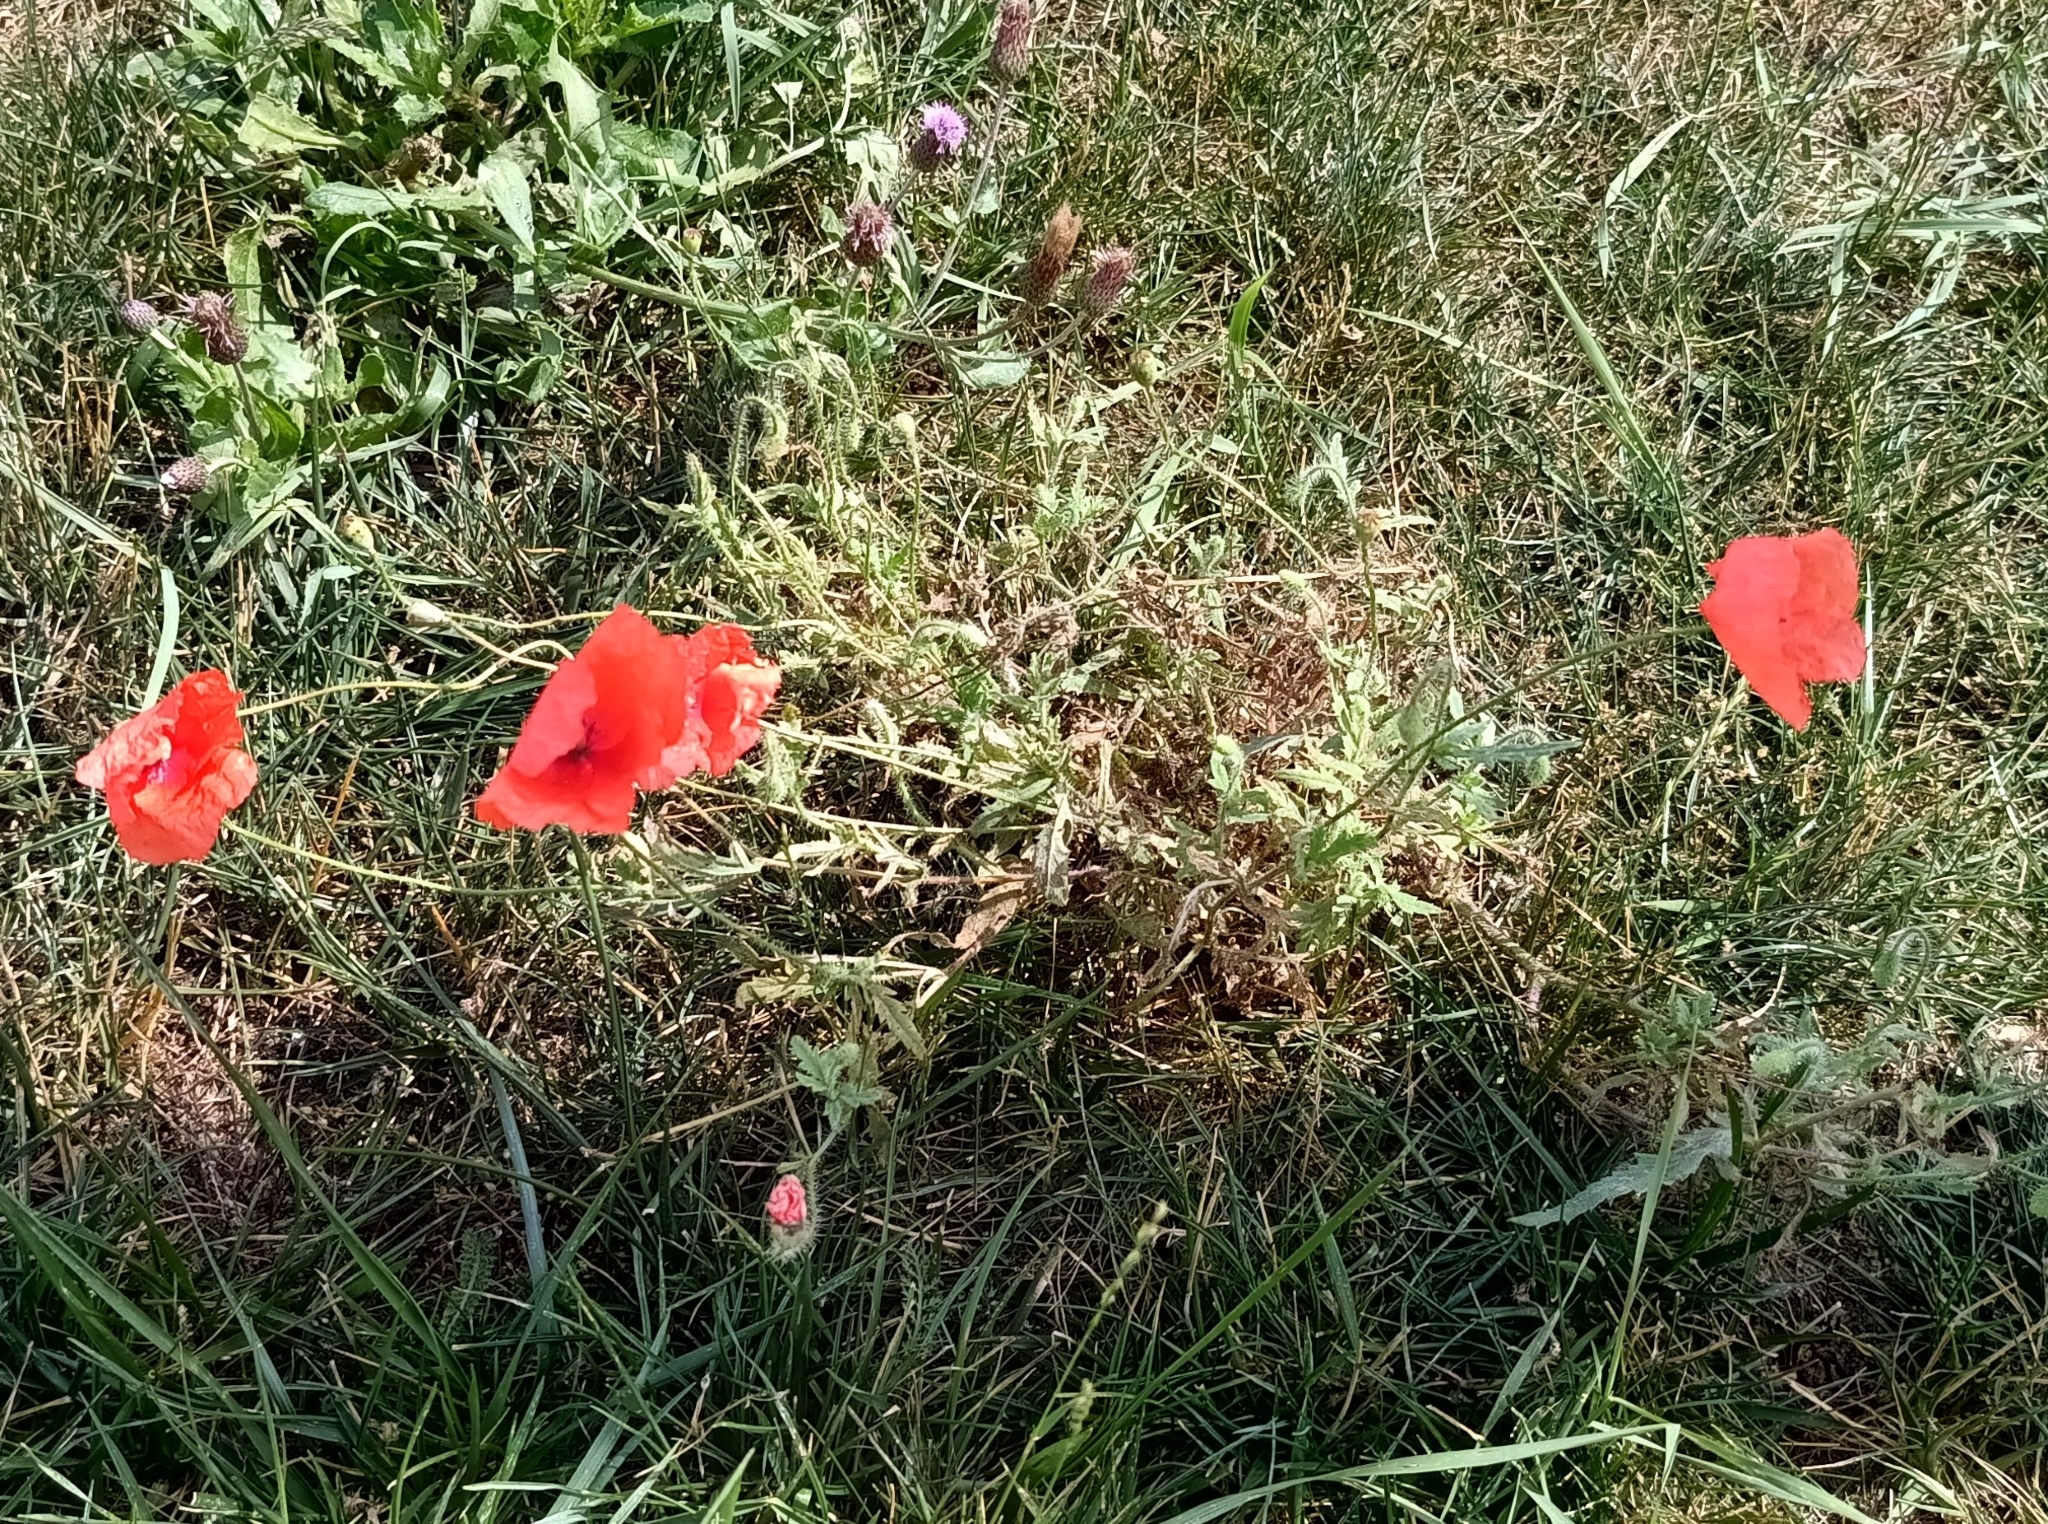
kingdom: Plantae
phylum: Tracheophyta
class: Magnoliopsida
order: Ranunculales
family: Papaveraceae
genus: Papaver
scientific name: Papaver rhoeas
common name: Corn poppy
